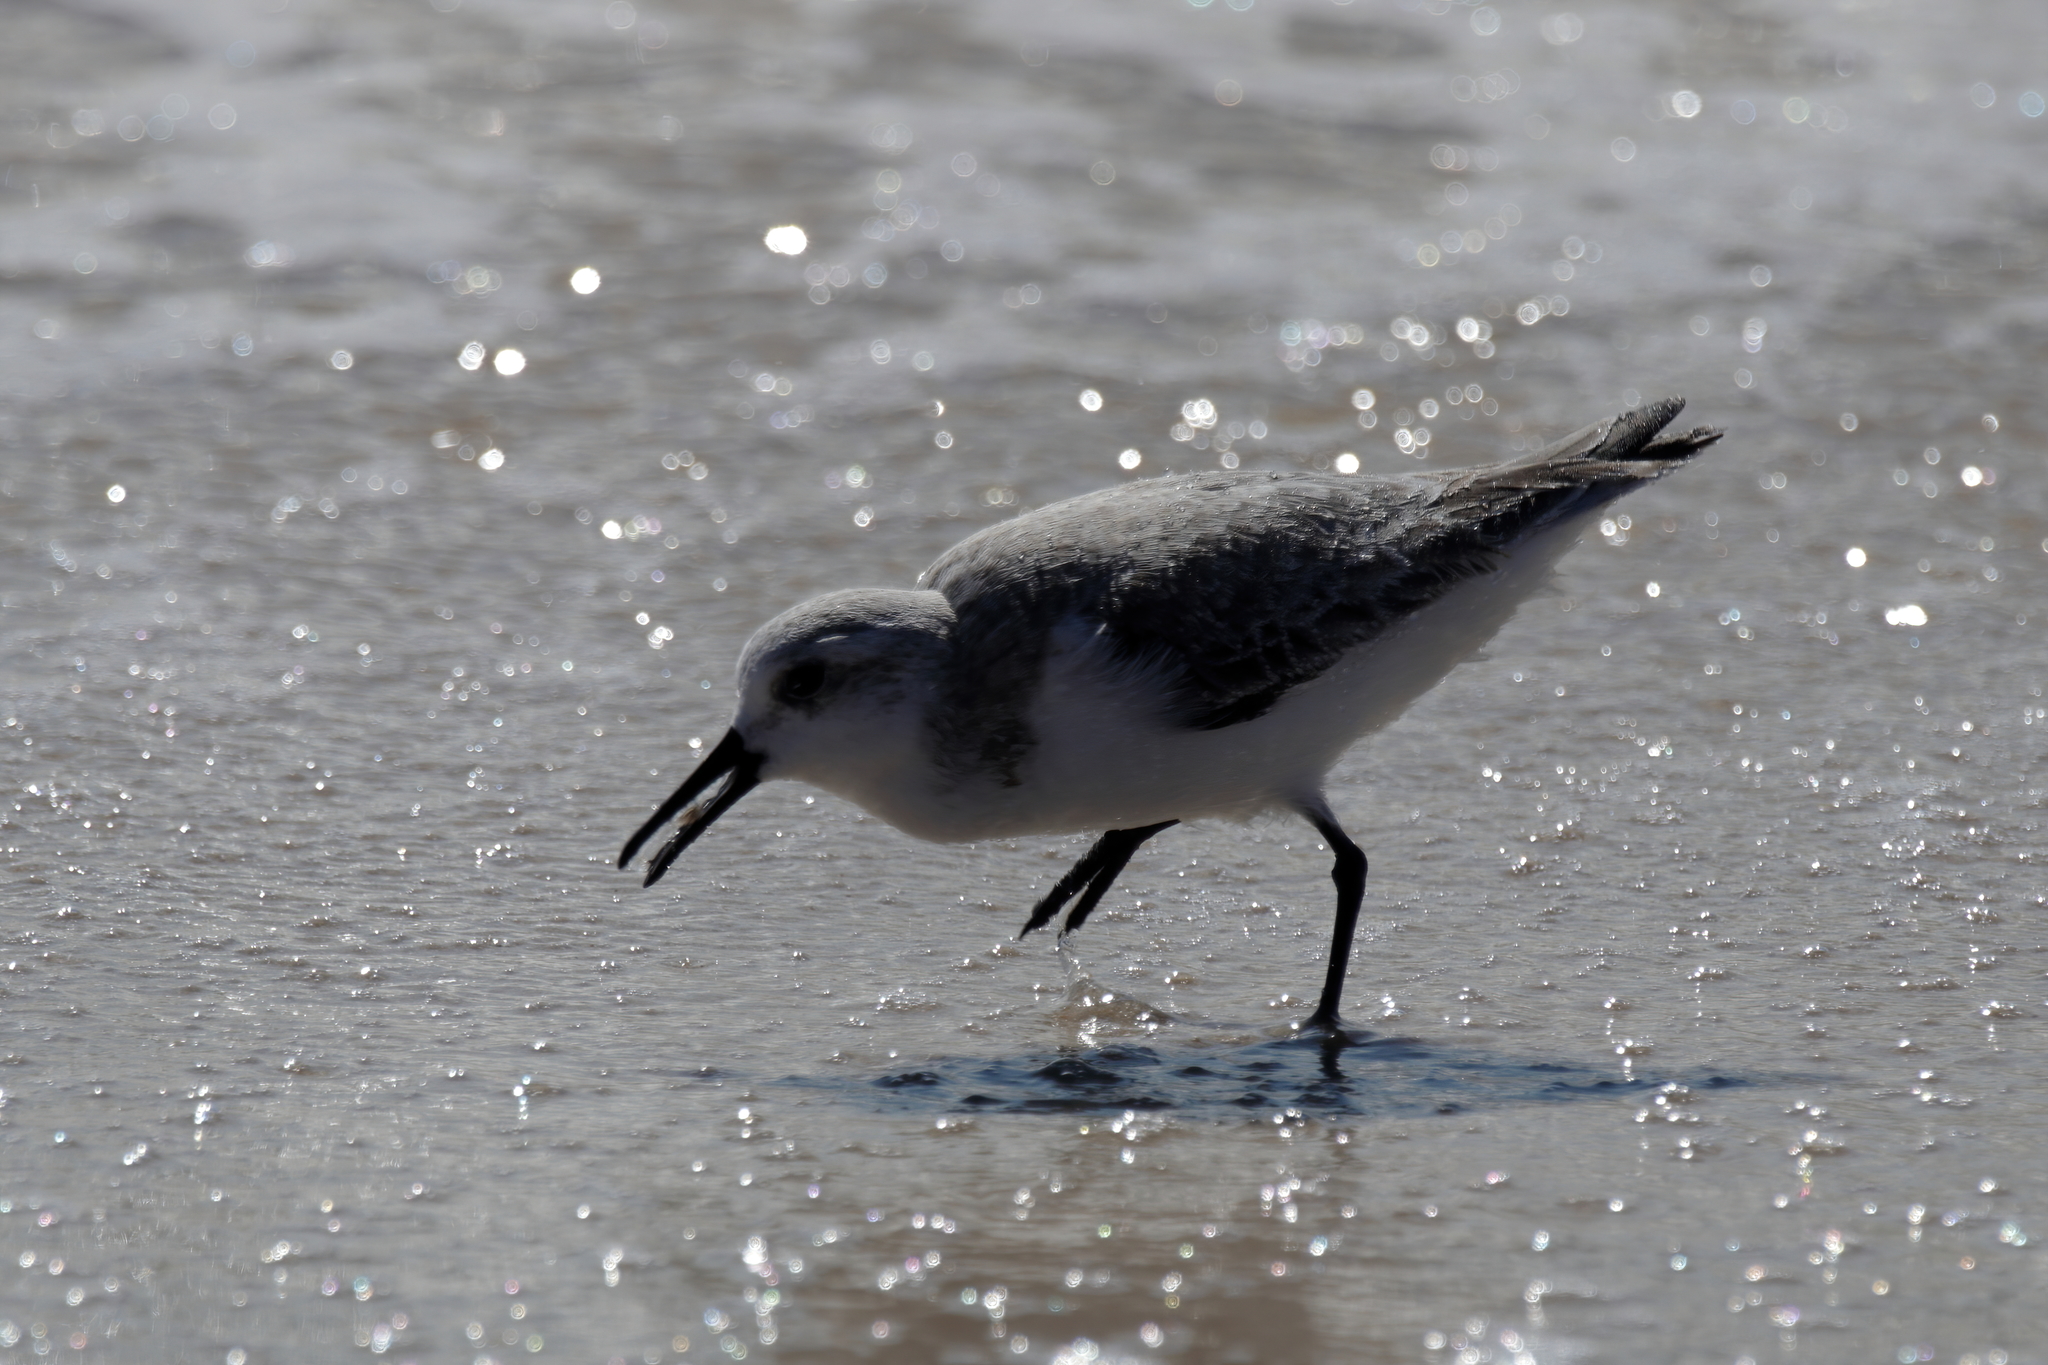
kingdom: Animalia
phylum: Chordata
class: Aves
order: Charadriiformes
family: Scolopacidae
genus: Calidris
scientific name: Calidris alba
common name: Sanderling
